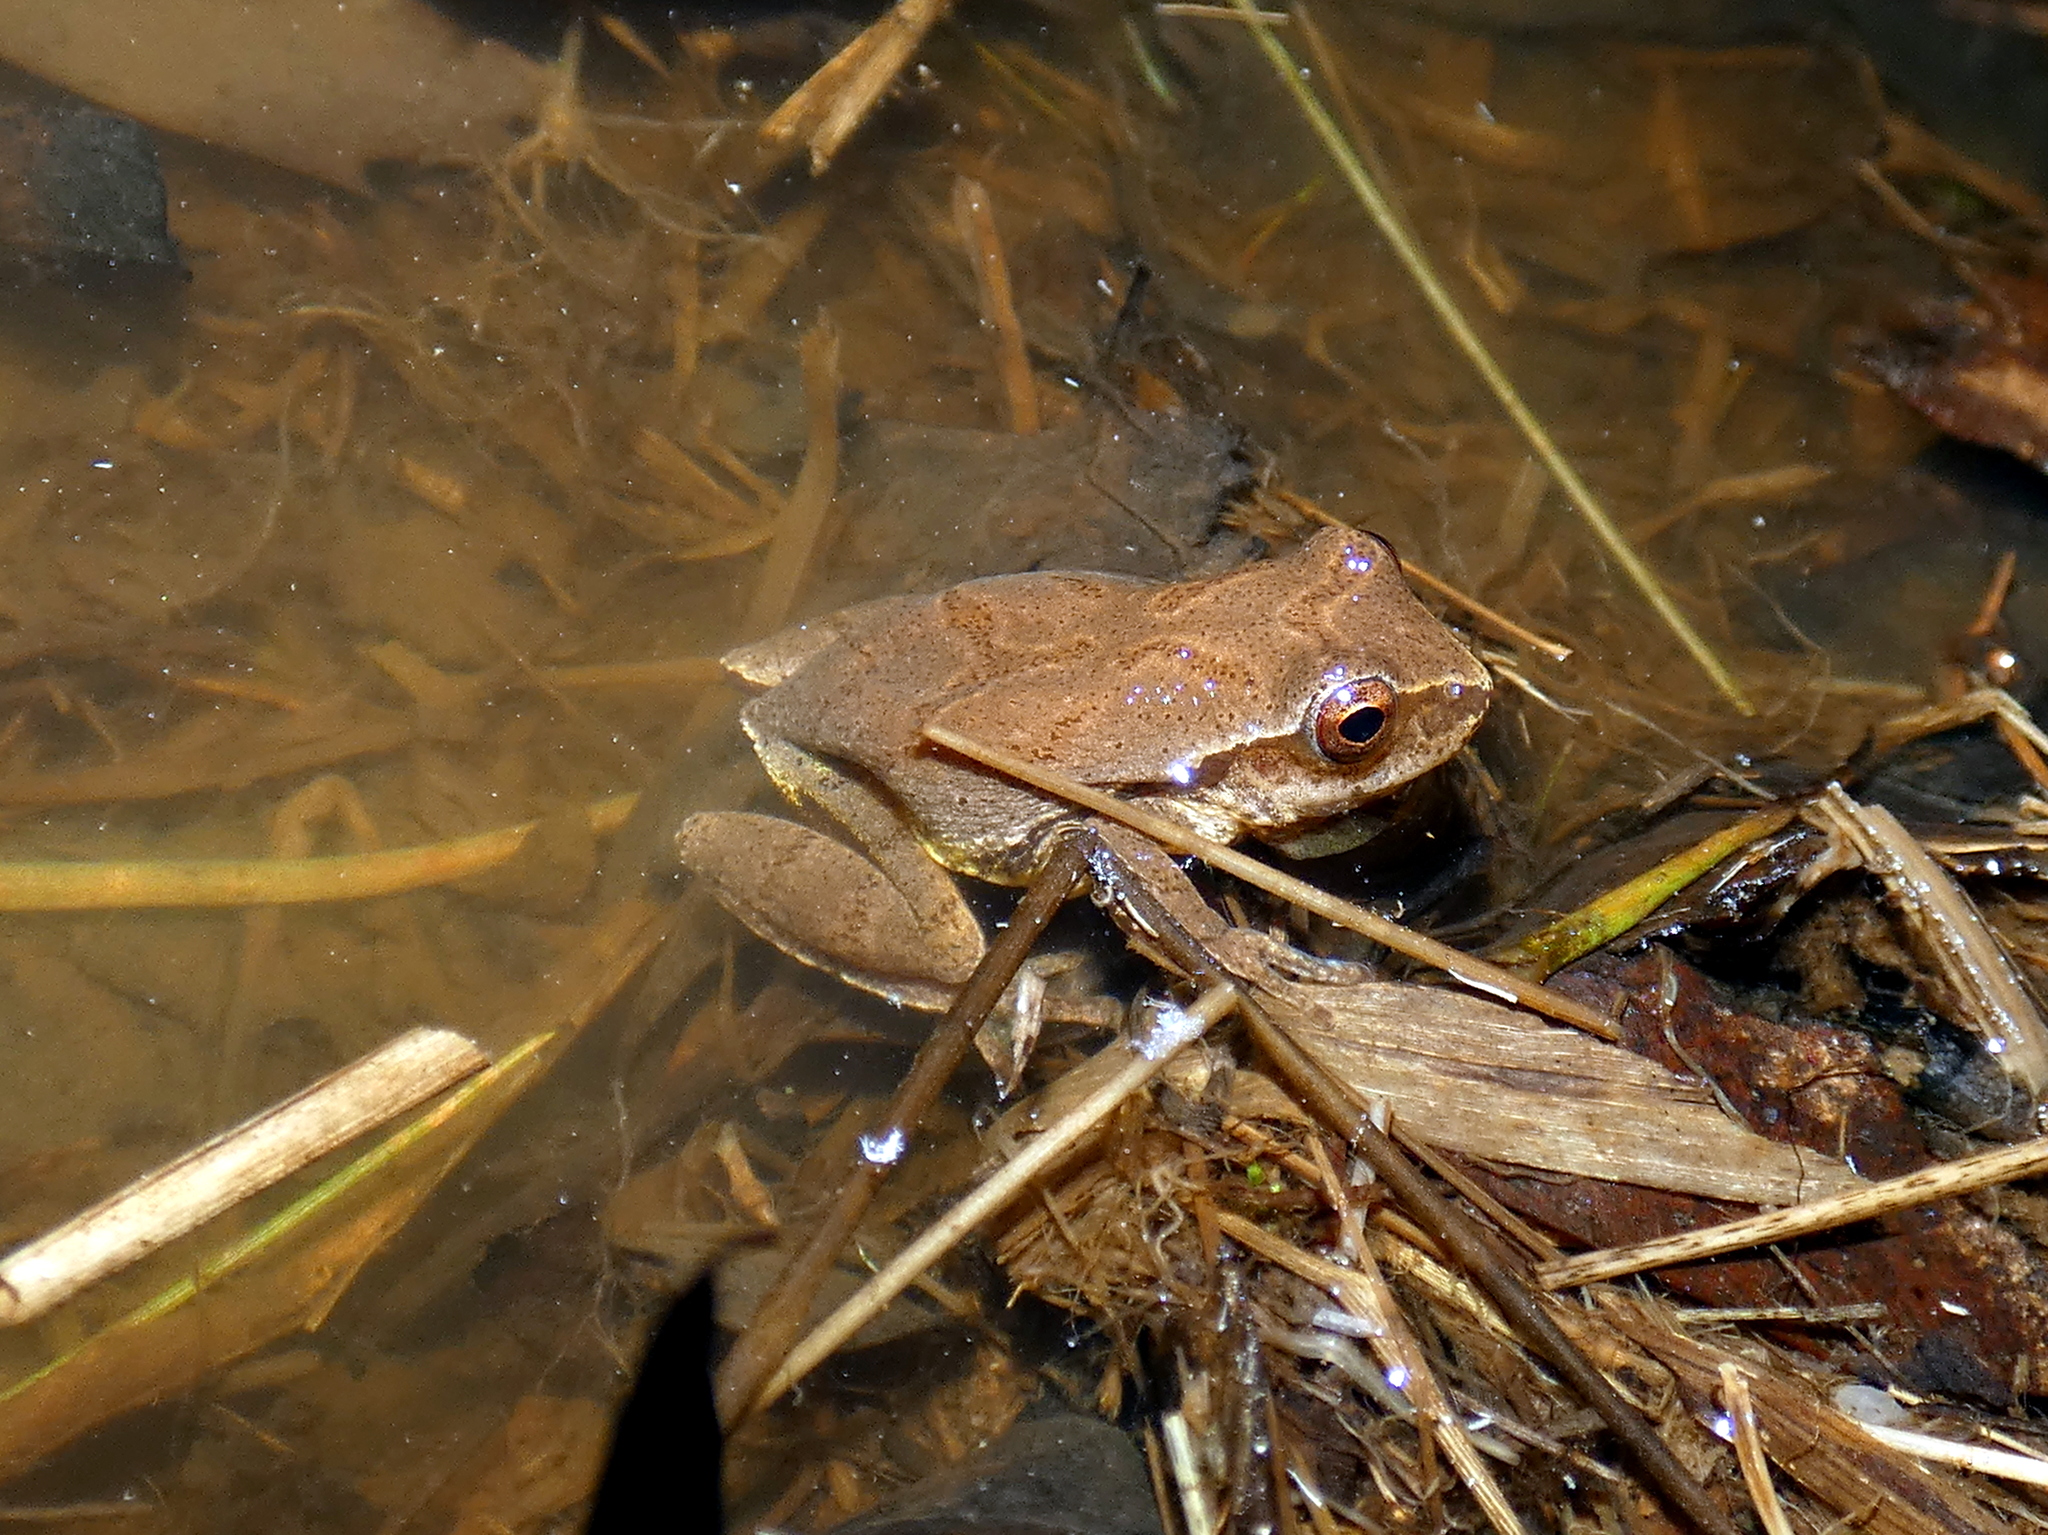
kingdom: Animalia
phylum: Chordata
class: Amphibia
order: Anura
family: Hylidae
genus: Pseudacris
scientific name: Pseudacris crucifer
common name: Spring peeper
